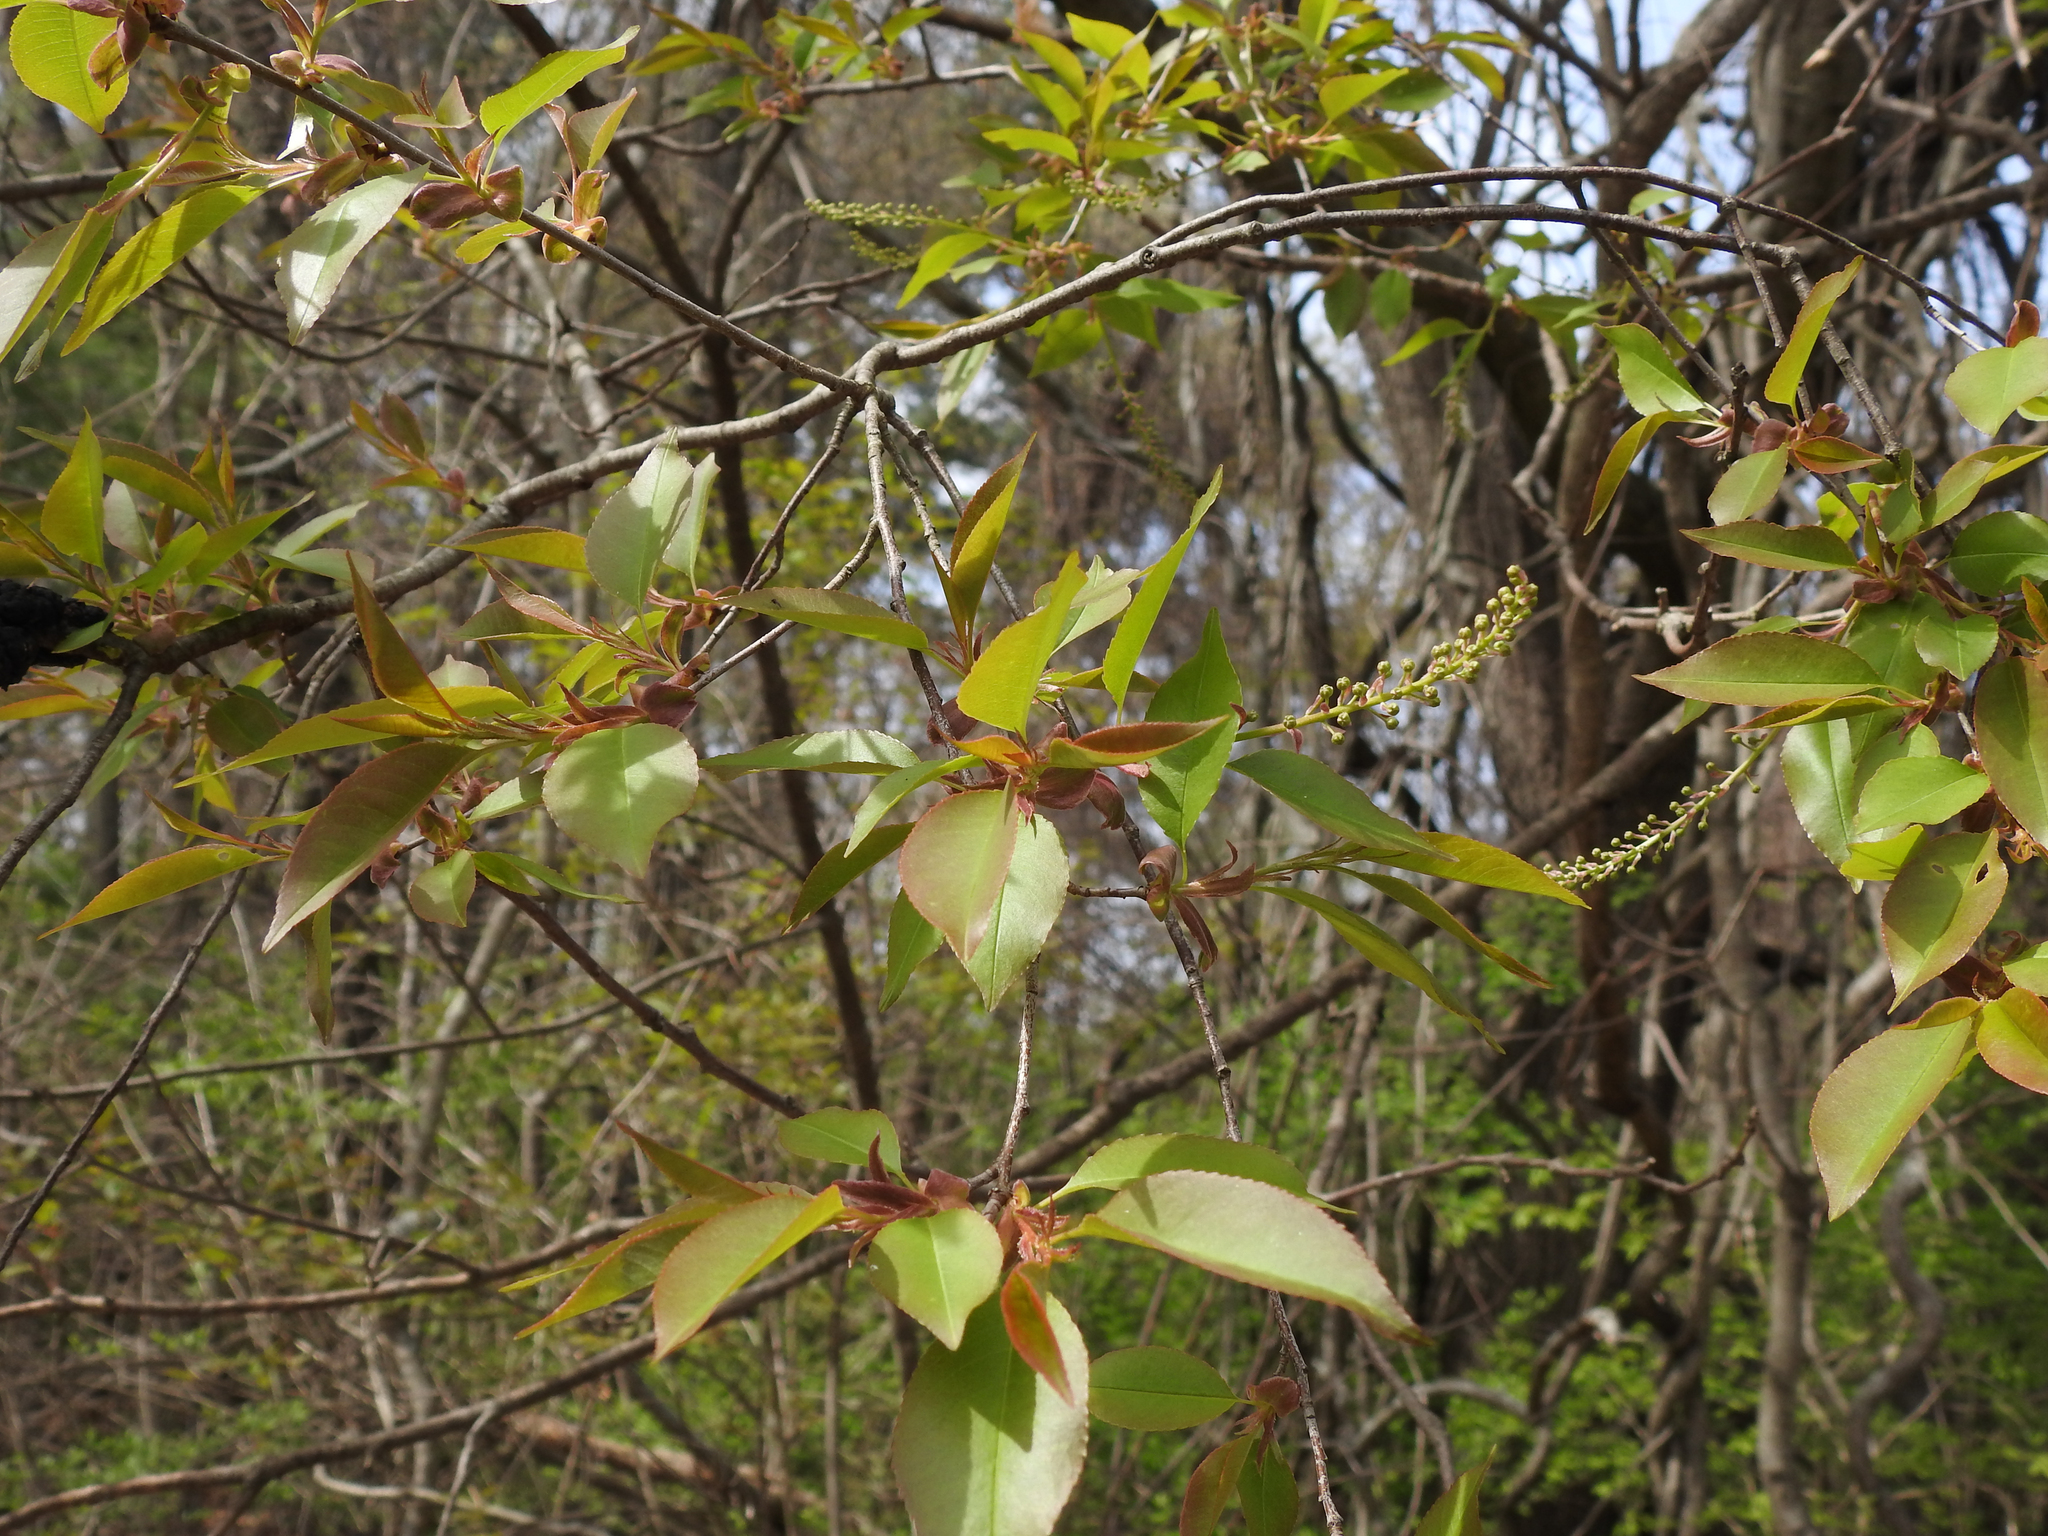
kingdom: Fungi
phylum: Ascomycota
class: Dothideomycetes
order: Venturiales
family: Venturiaceae
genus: Apiosporina
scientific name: Apiosporina morbosa
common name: Black knot
